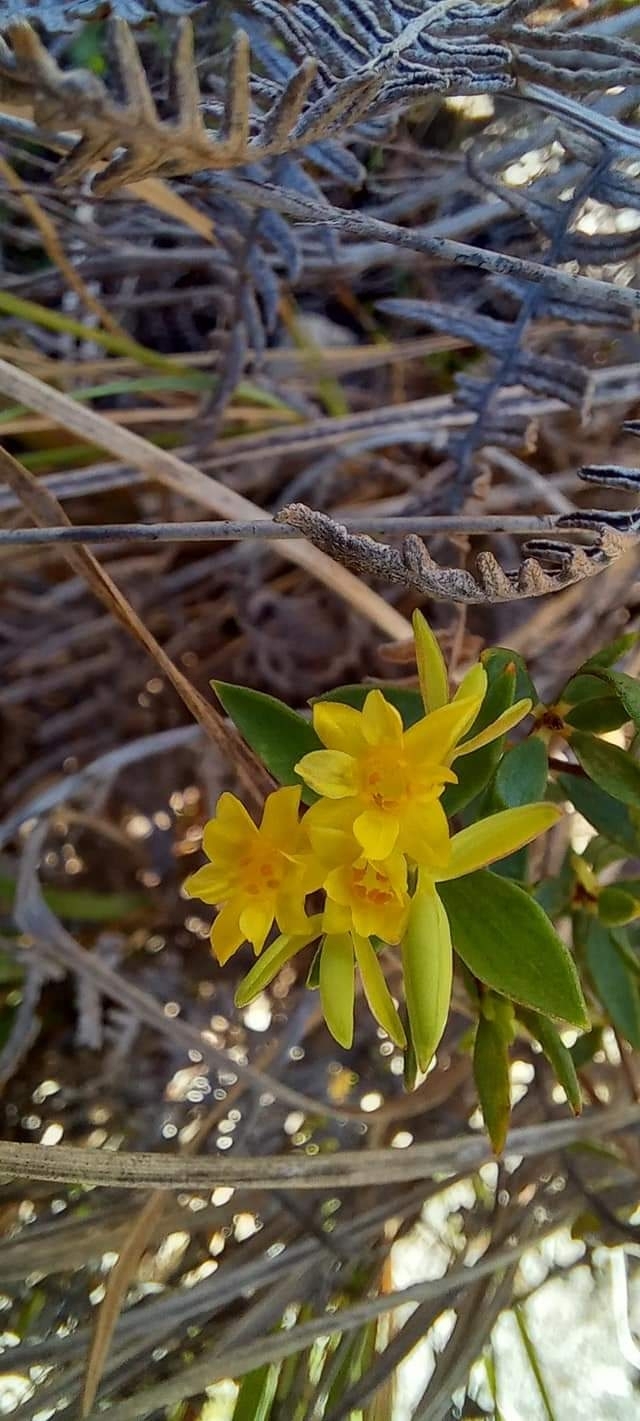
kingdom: Plantae
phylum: Tracheophyta
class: Magnoliopsida
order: Malvales
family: Thymelaeaceae
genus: Gnidia
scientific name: Gnidia juniperifolia
